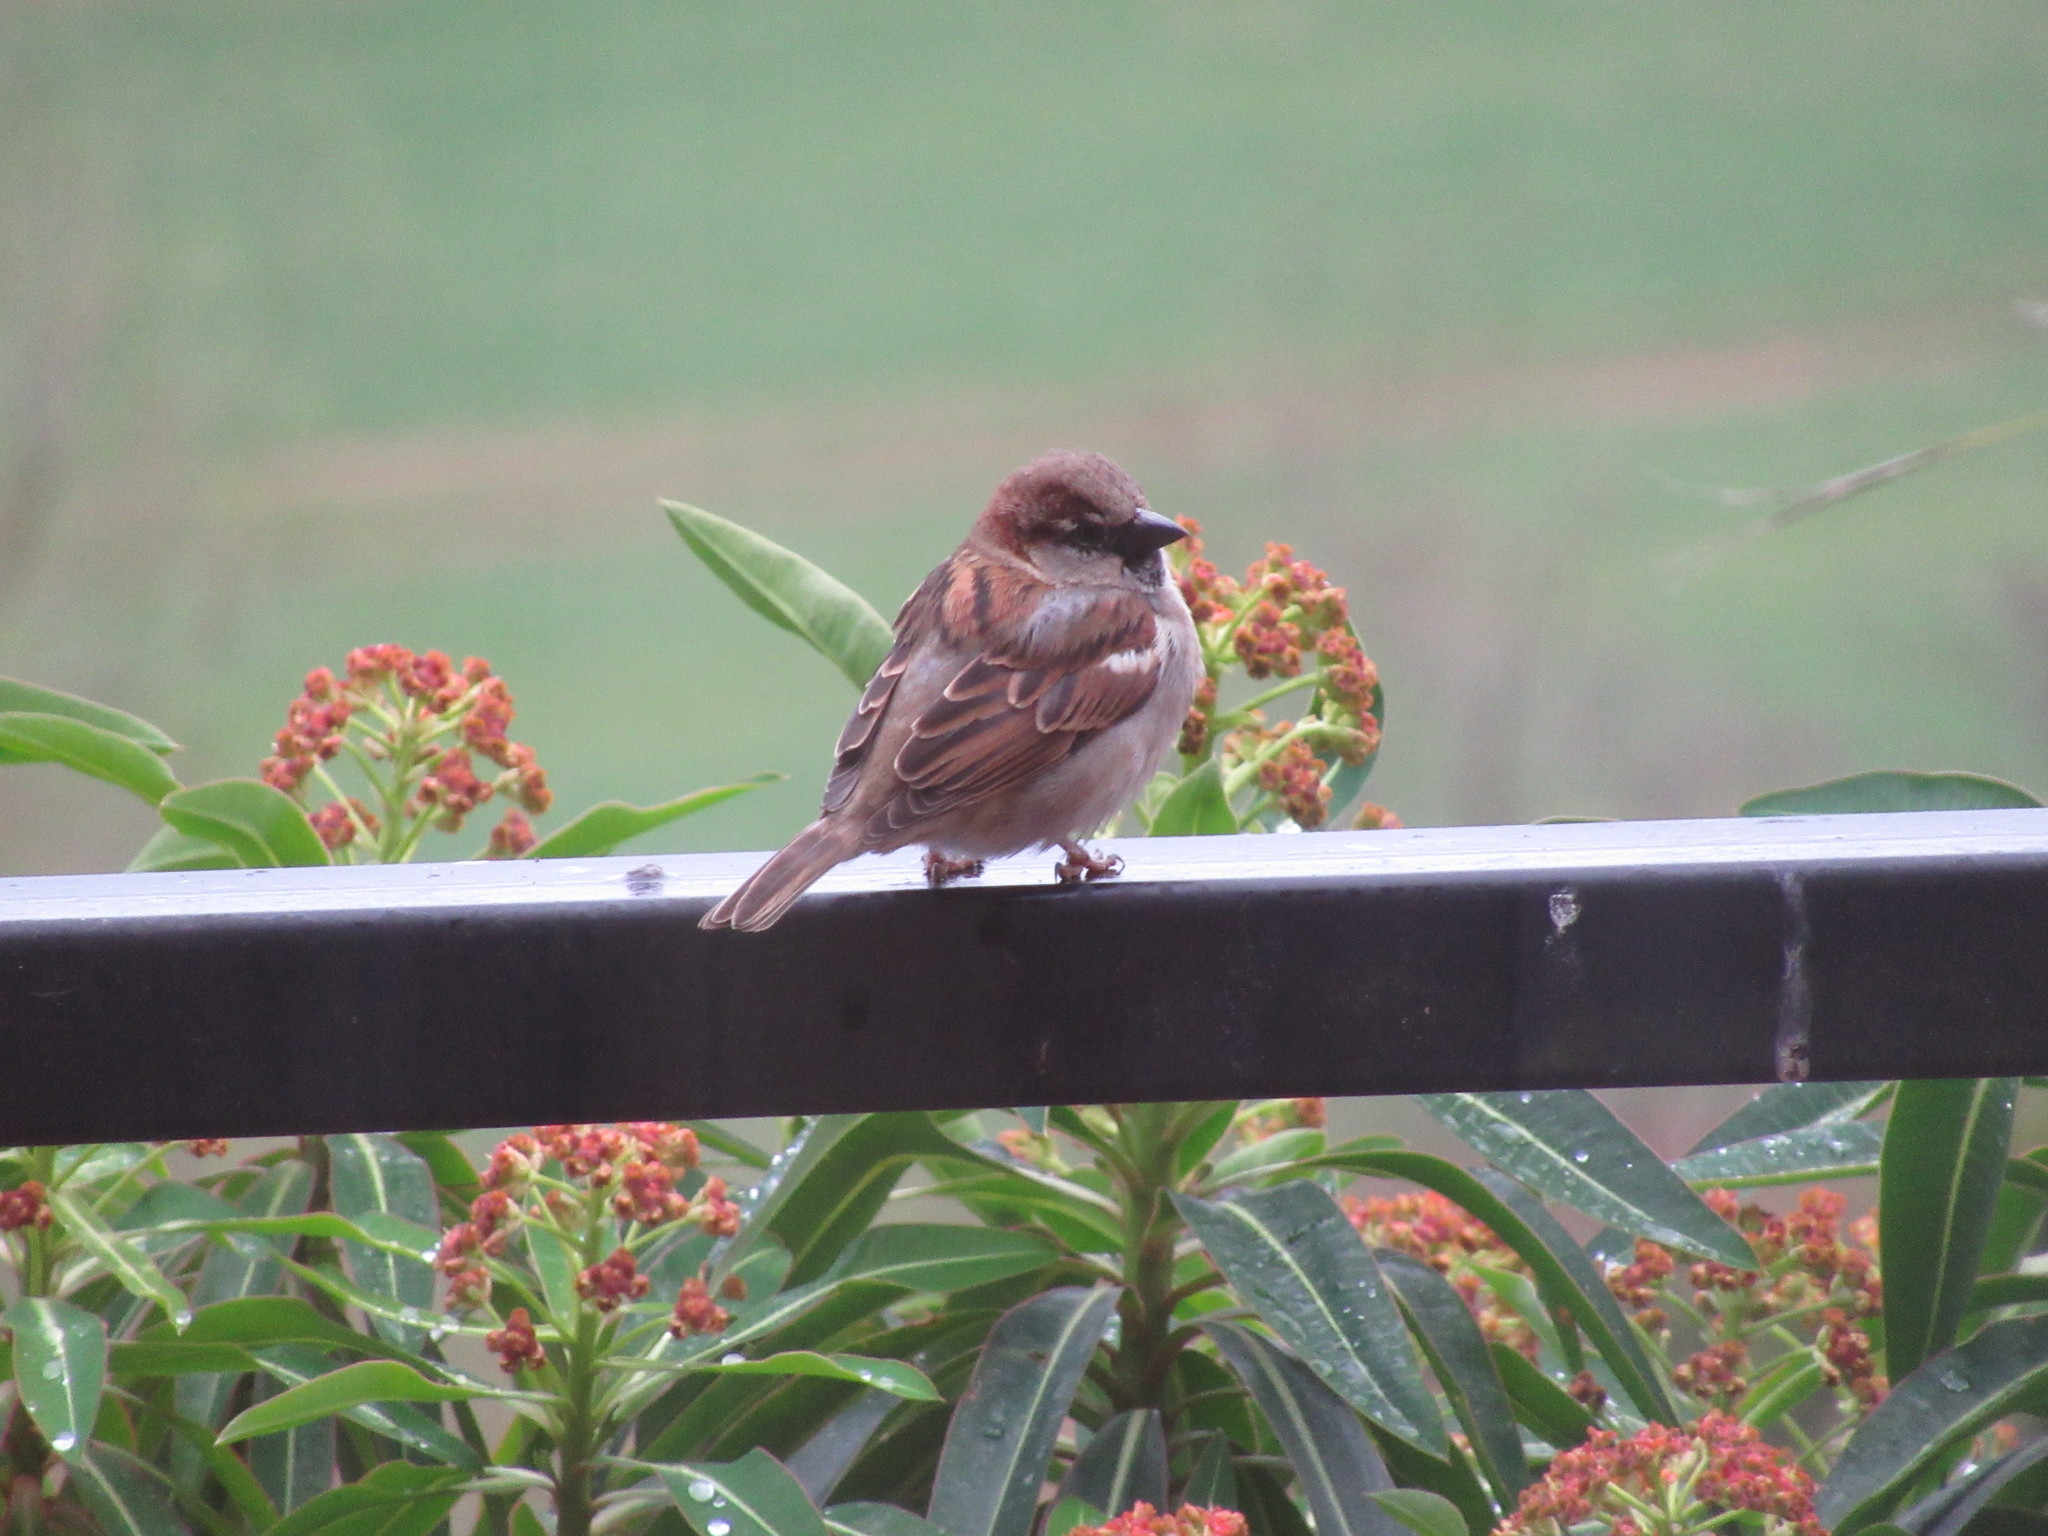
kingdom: Animalia
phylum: Chordata
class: Aves
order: Passeriformes
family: Passeridae
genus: Passer
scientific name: Passer domesticus
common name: House sparrow
